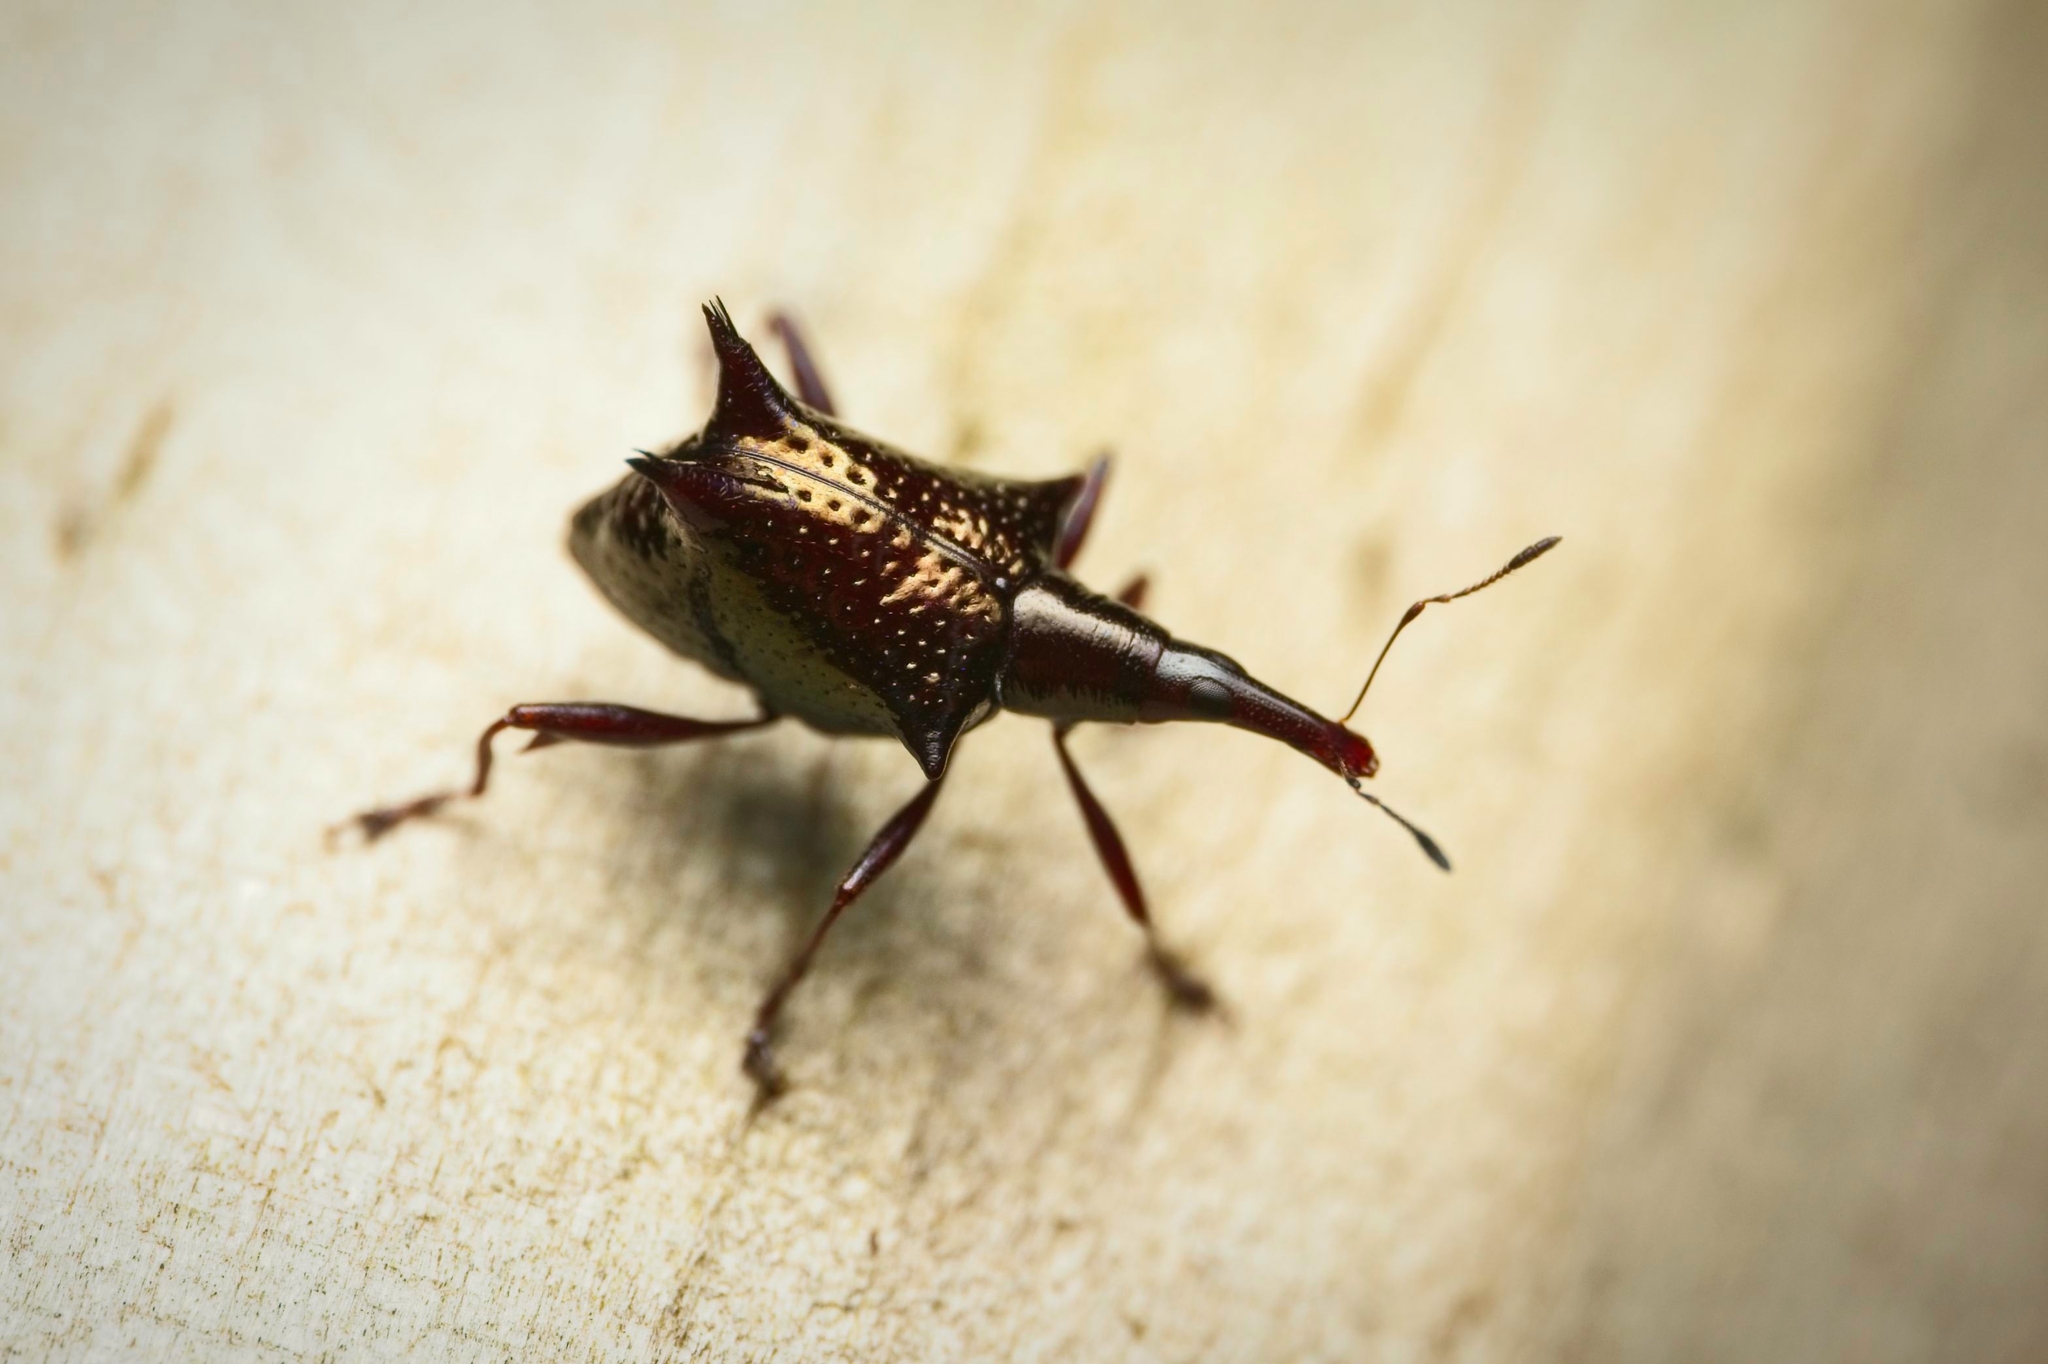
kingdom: Animalia
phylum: Arthropoda
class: Insecta
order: Coleoptera
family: Curculionidae
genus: Scolopterus
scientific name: Scolopterus aequus
